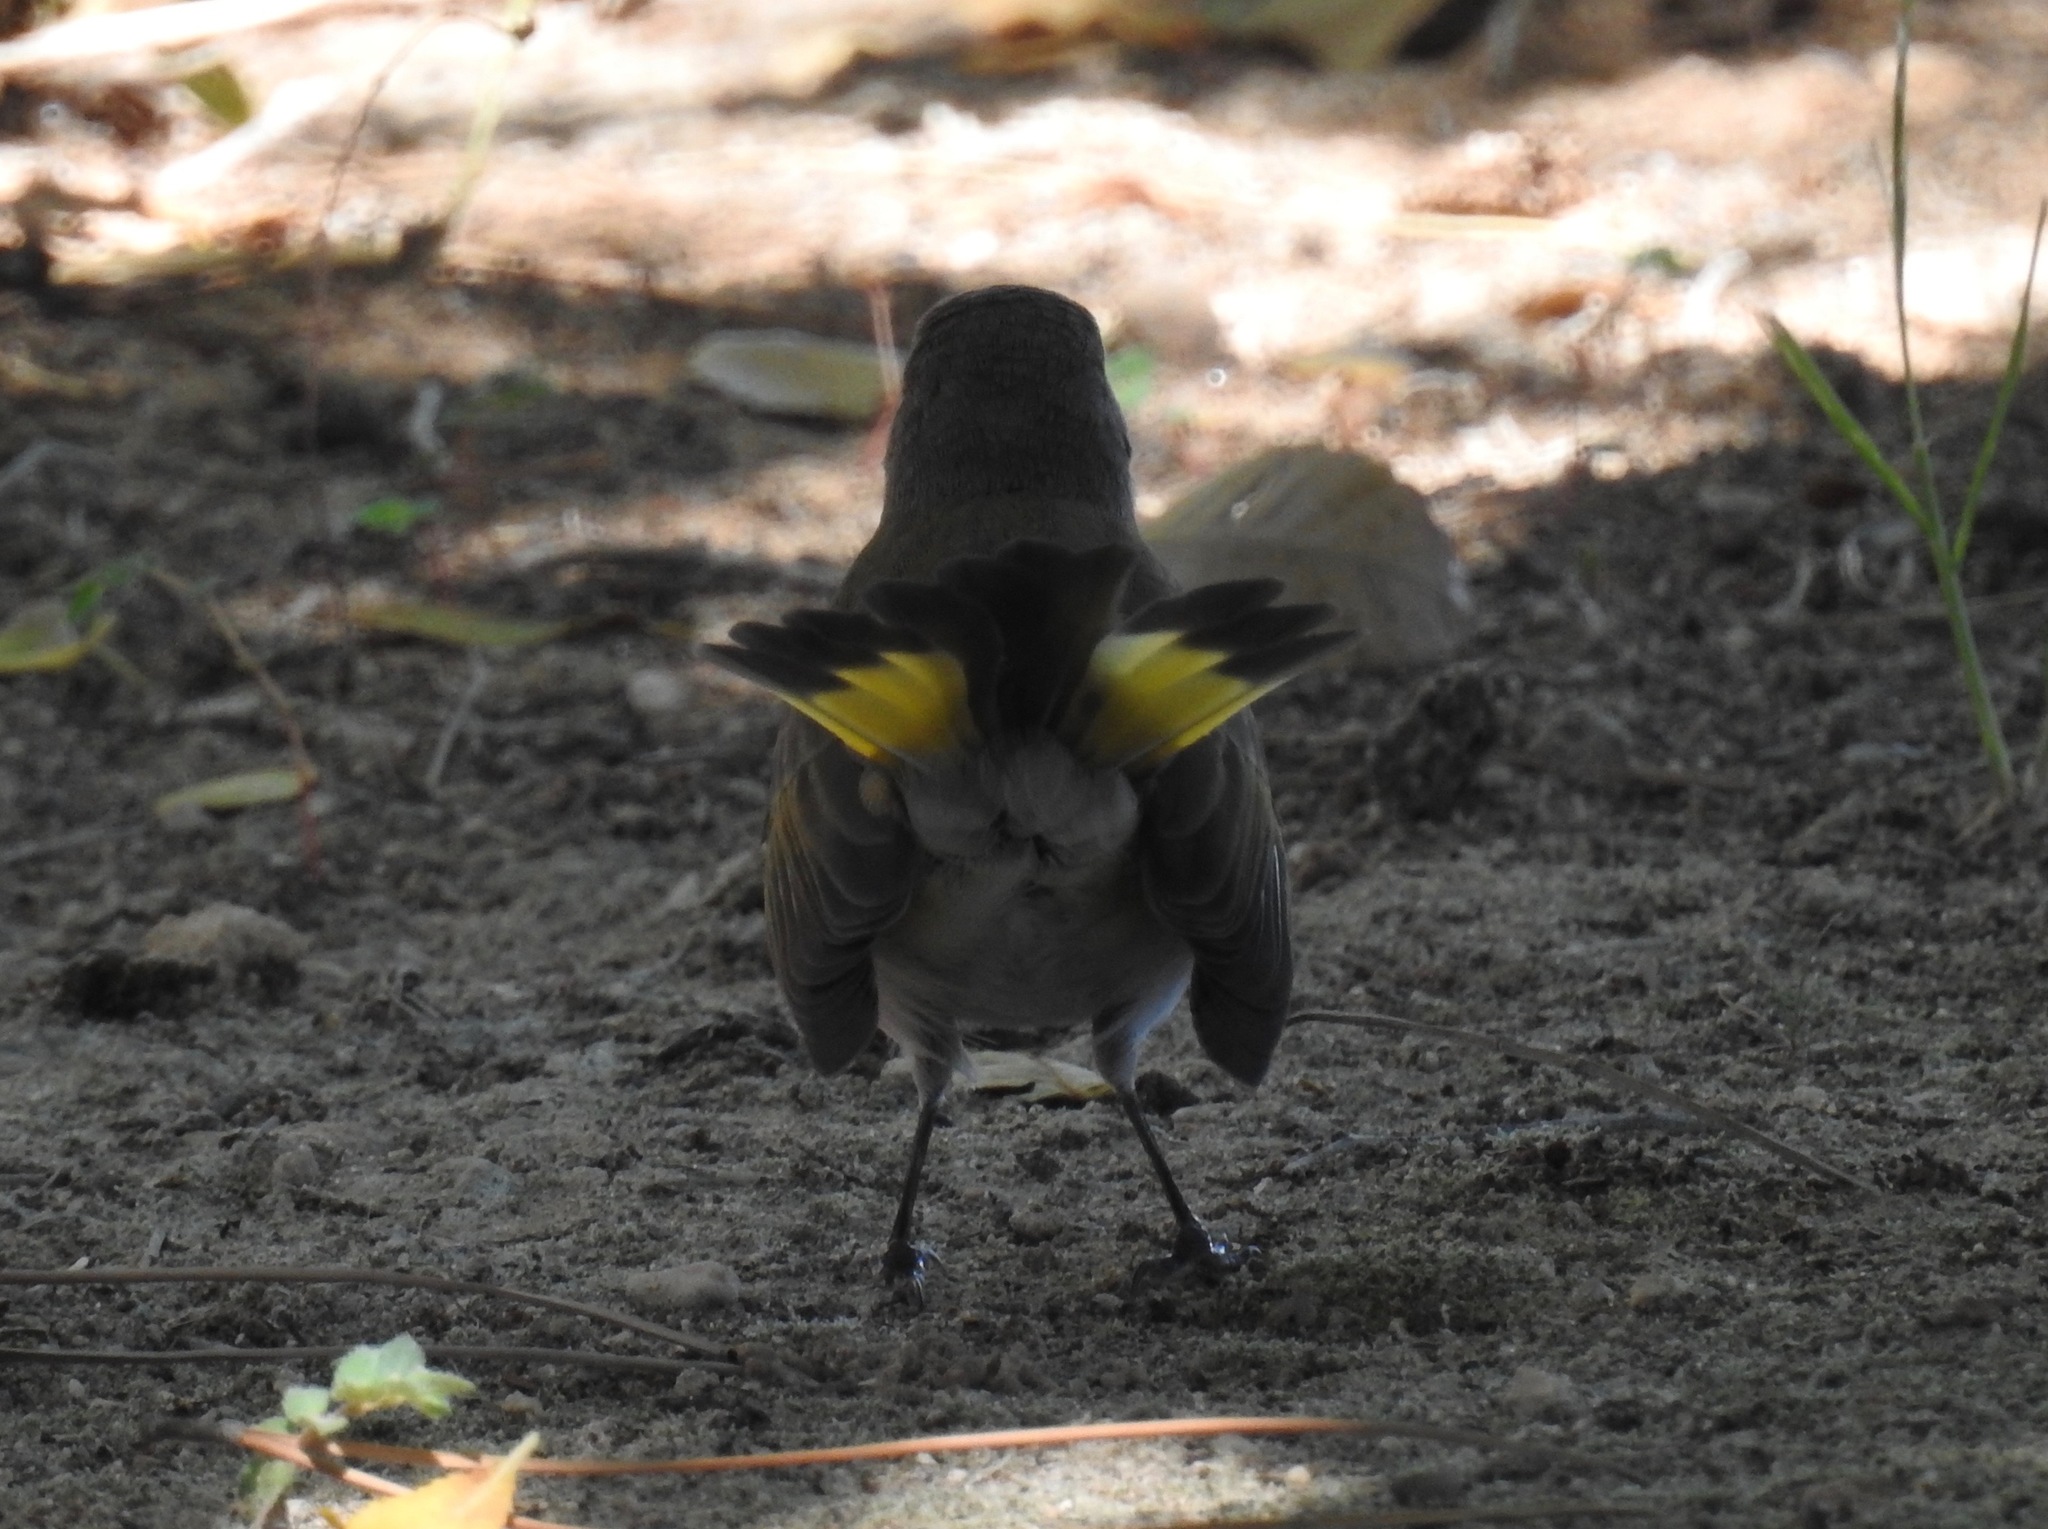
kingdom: Animalia
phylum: Chordata
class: Aves
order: Passeriformes
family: Parulidae
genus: Setophaga
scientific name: Setophaga ruticilla
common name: American redstart
